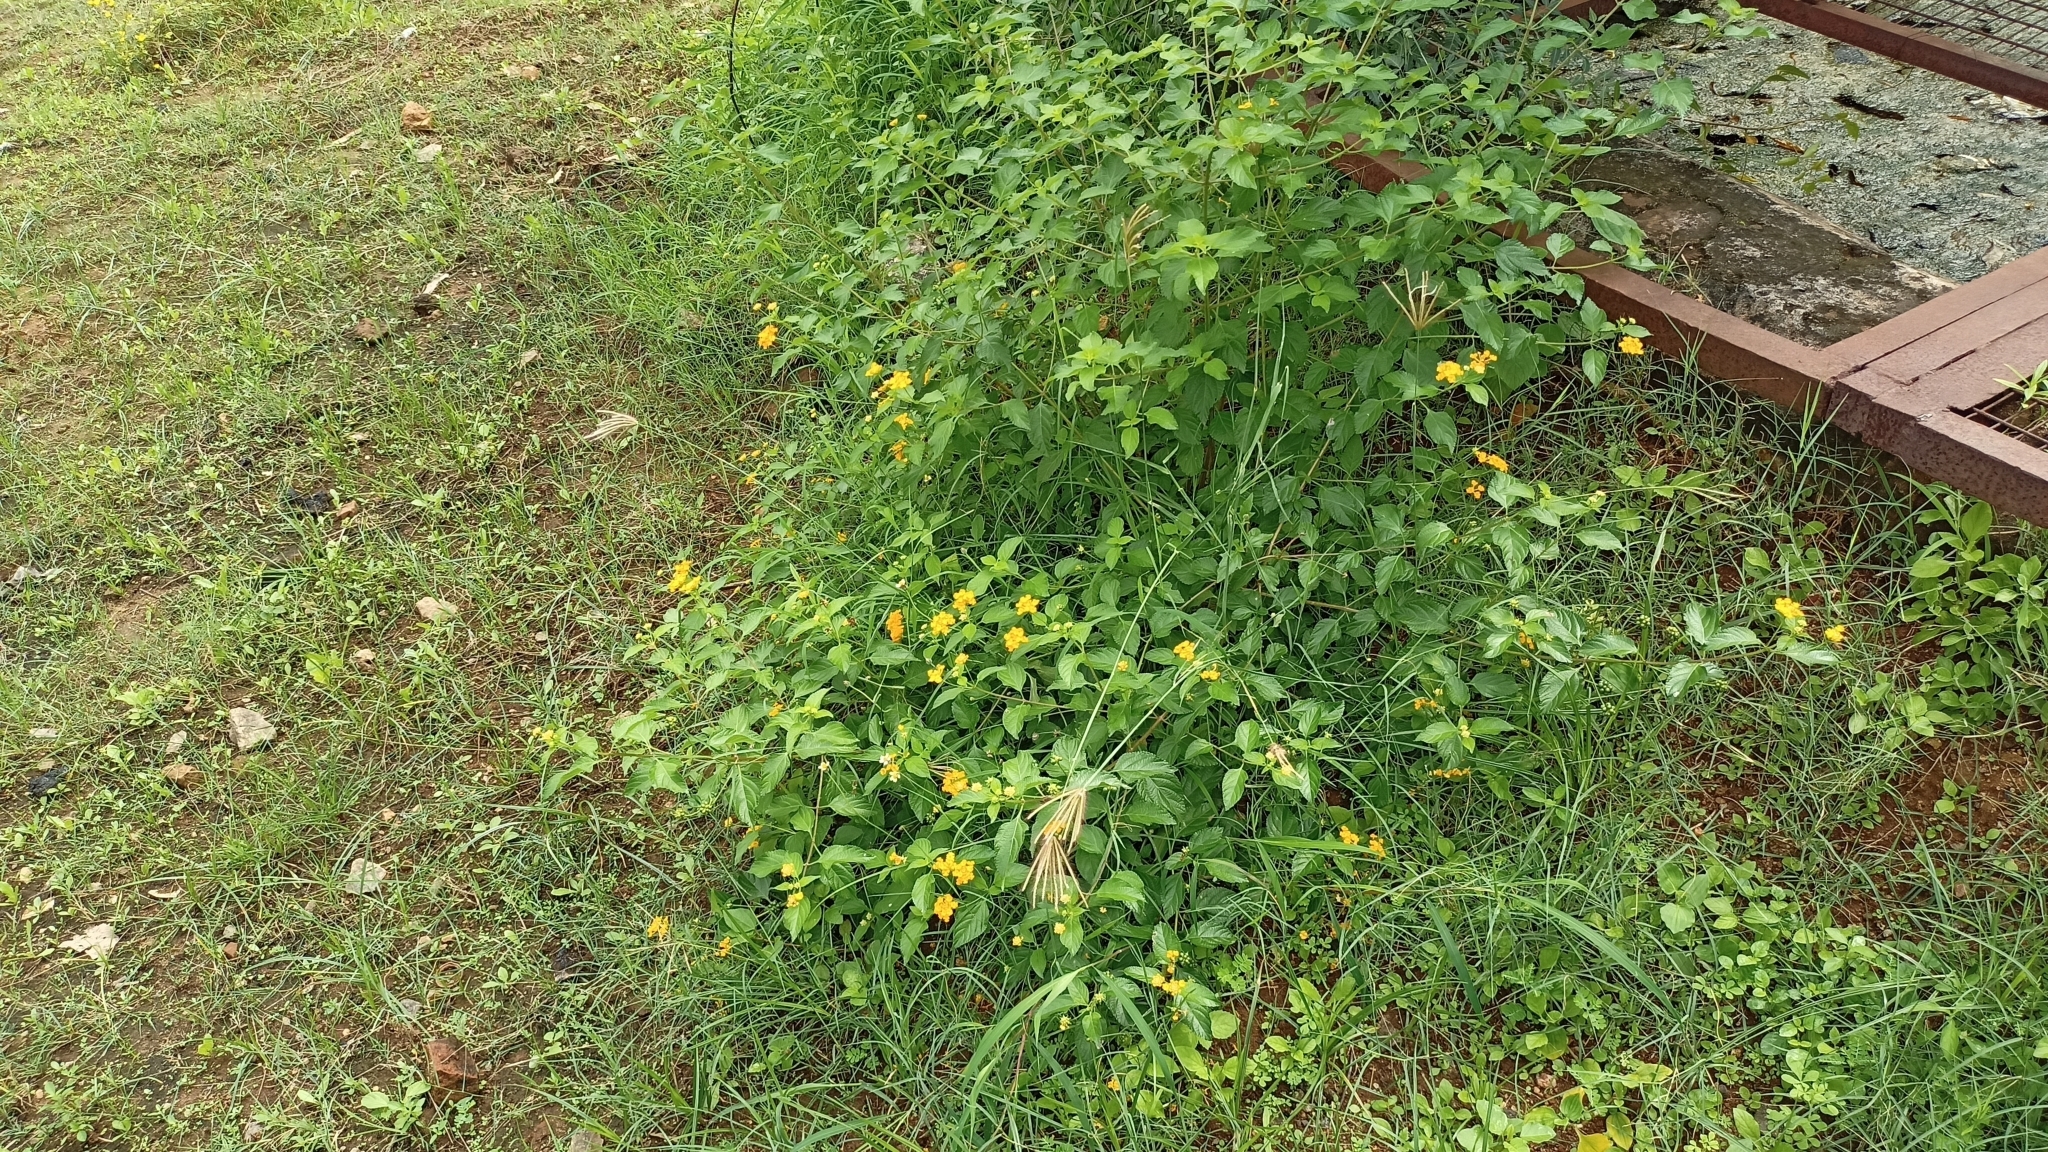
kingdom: Plantae
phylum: Tracheophyta
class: Magnoliopsida
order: Lamiales
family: Verbenaceae
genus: Lantana
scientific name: Lantana polyacantha
